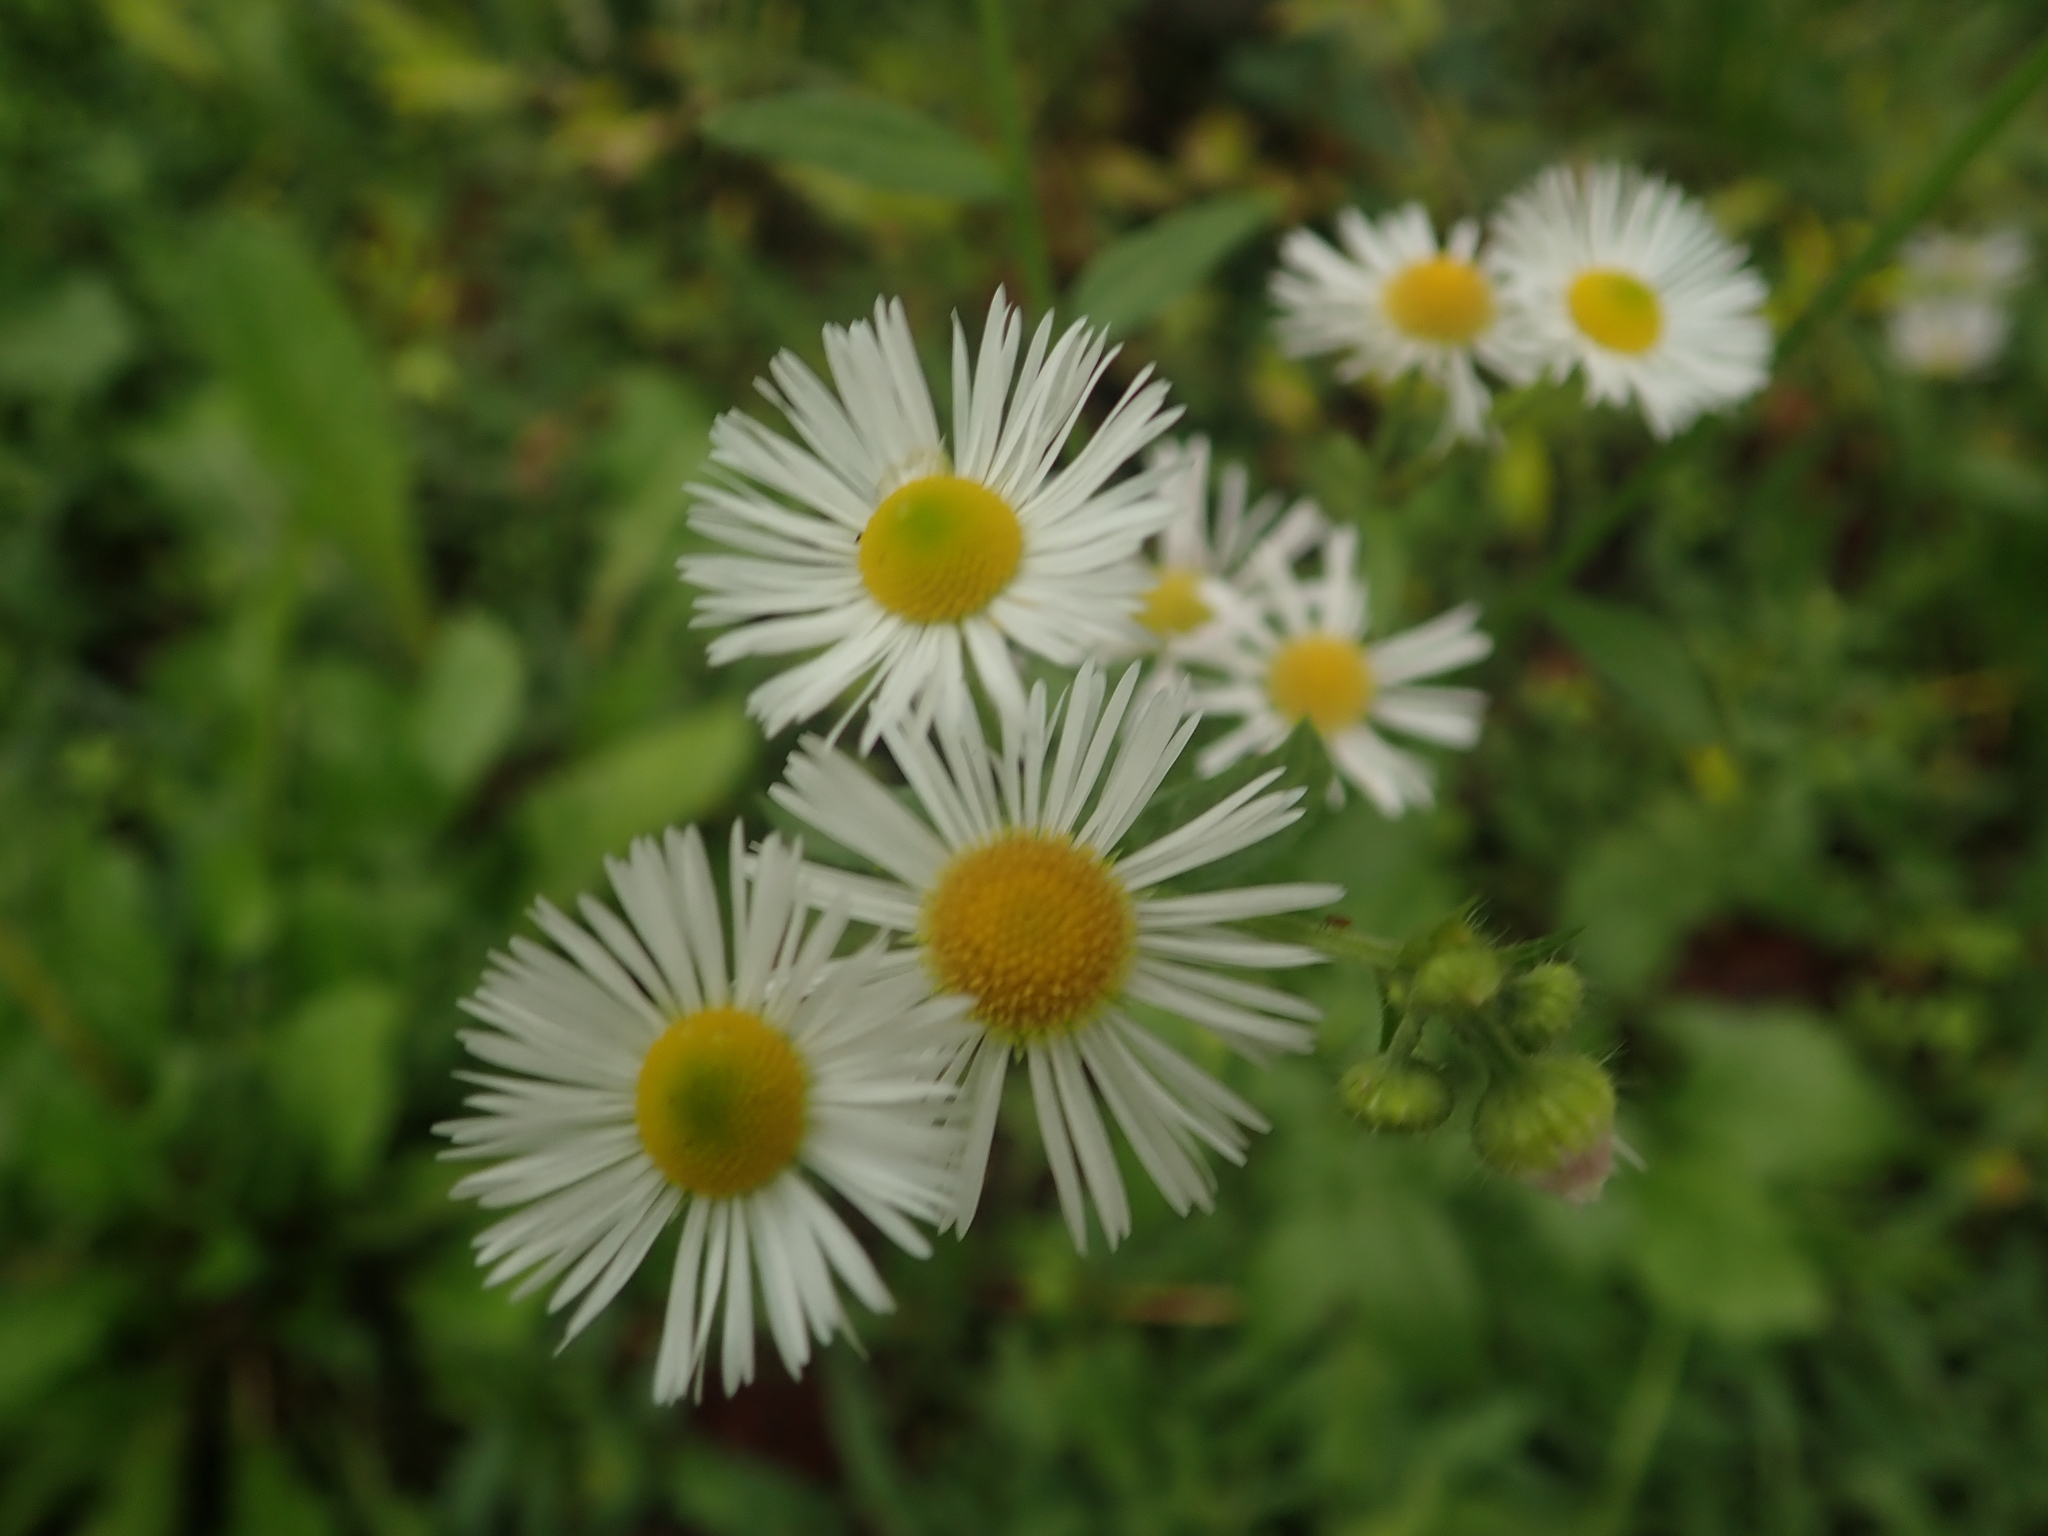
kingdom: Plantae
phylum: Tracheophyta
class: Magnoliopsida
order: Asterales
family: Asteraceae
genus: Erigeron
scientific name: Erigeron annuus
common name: Tall fleabane
